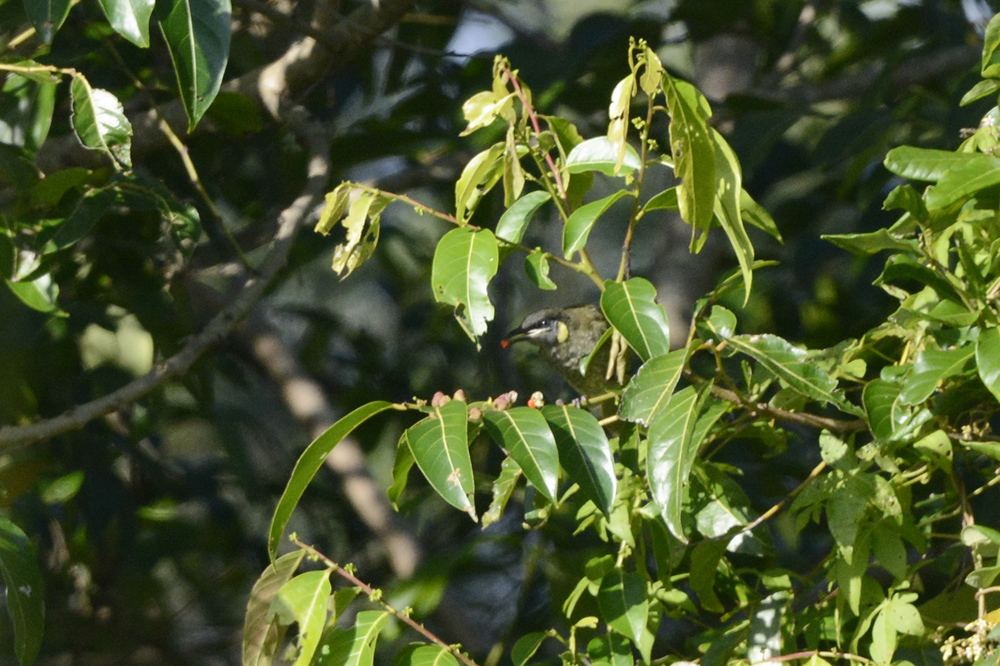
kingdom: Plantae
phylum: Tracheophyta
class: Magnoliopsida
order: Rosales
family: Rhamnaceae
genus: Alphitonia
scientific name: Alphitonia excelsa
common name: Red ash
